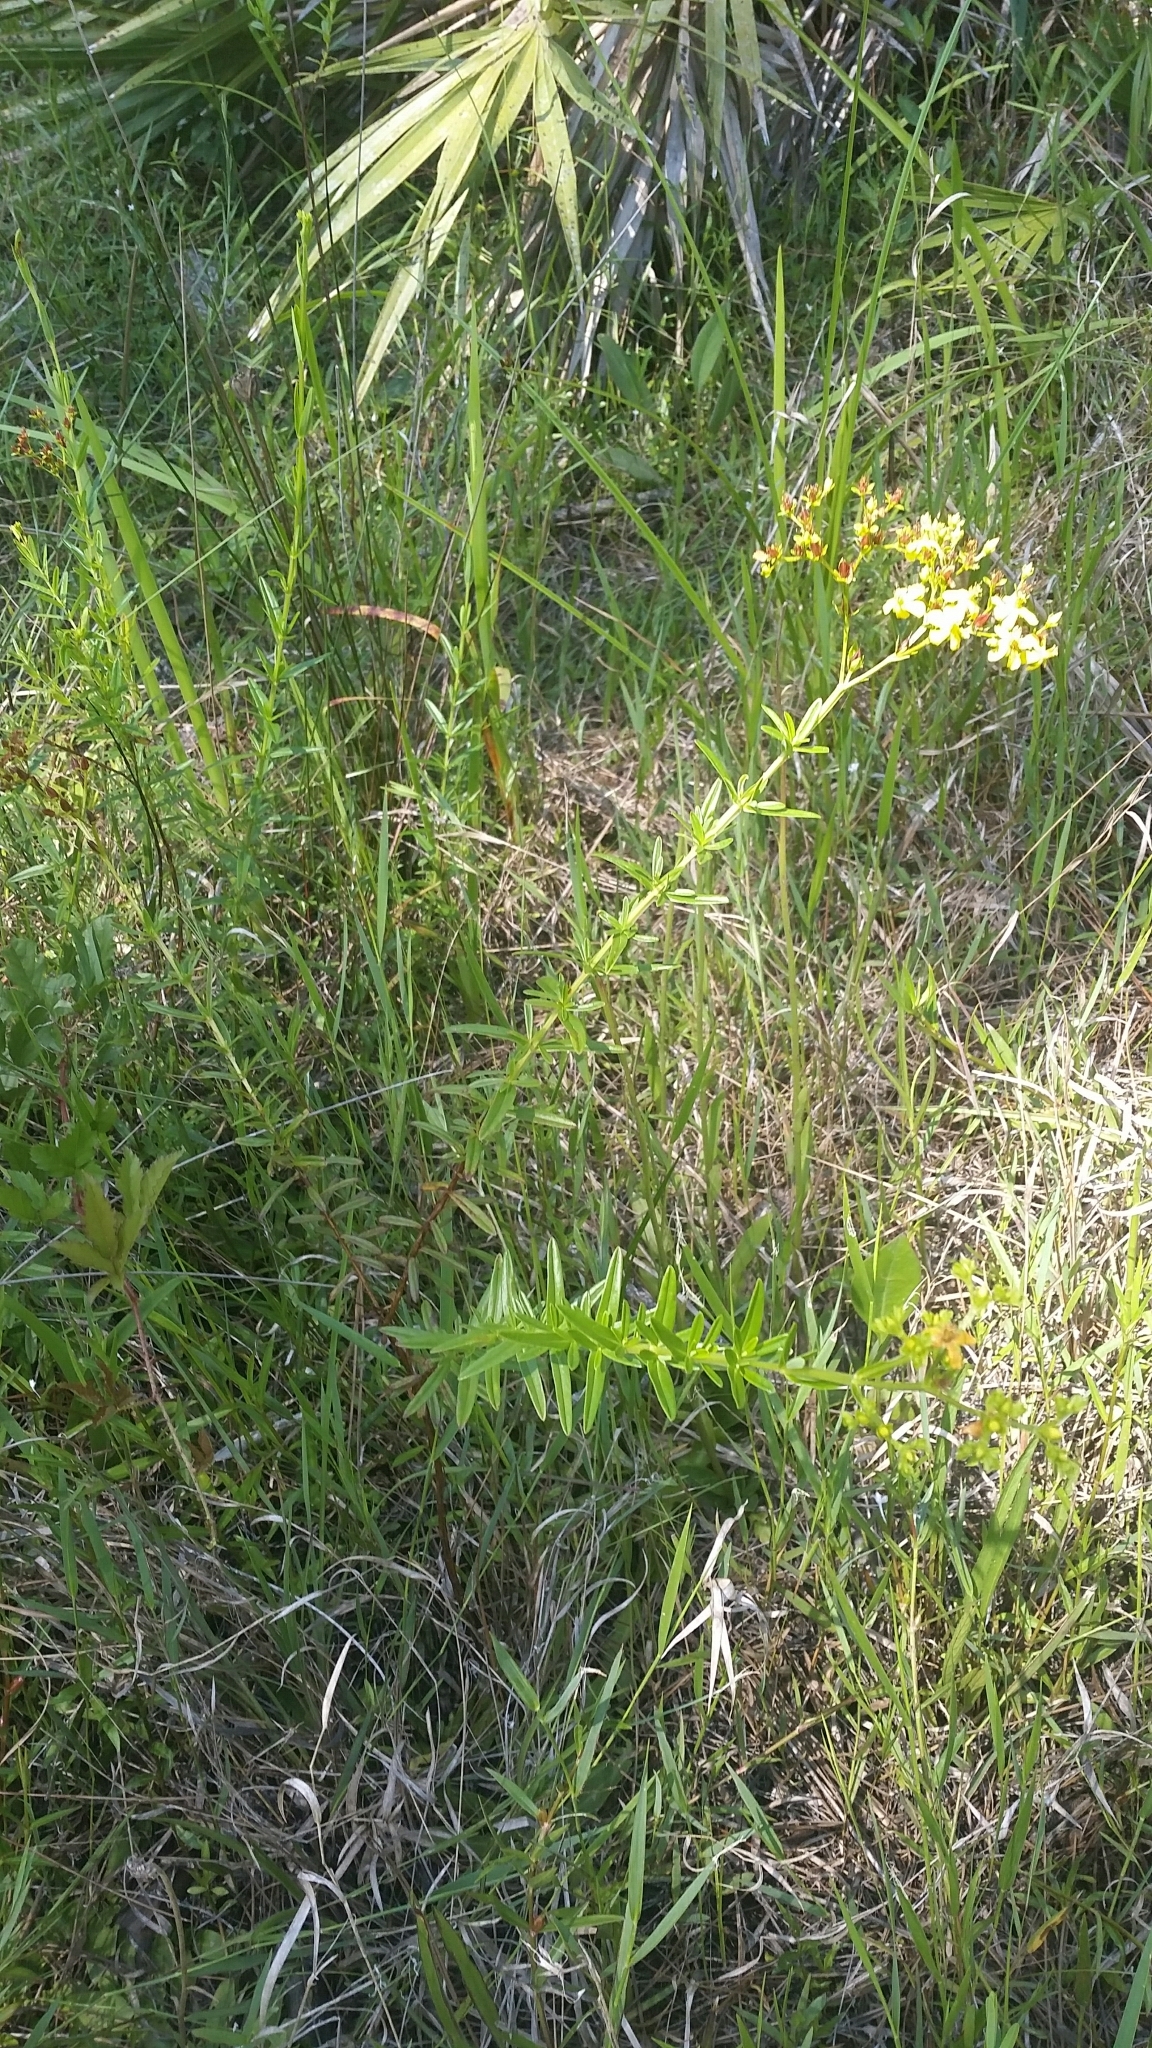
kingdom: Plantae
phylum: Tracheophyta
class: Magnoliopsida
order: Malpighiales
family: Hypericaceae
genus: Hypericum
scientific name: Hypericum cistifolium
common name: Round-pod st. john's-wort
